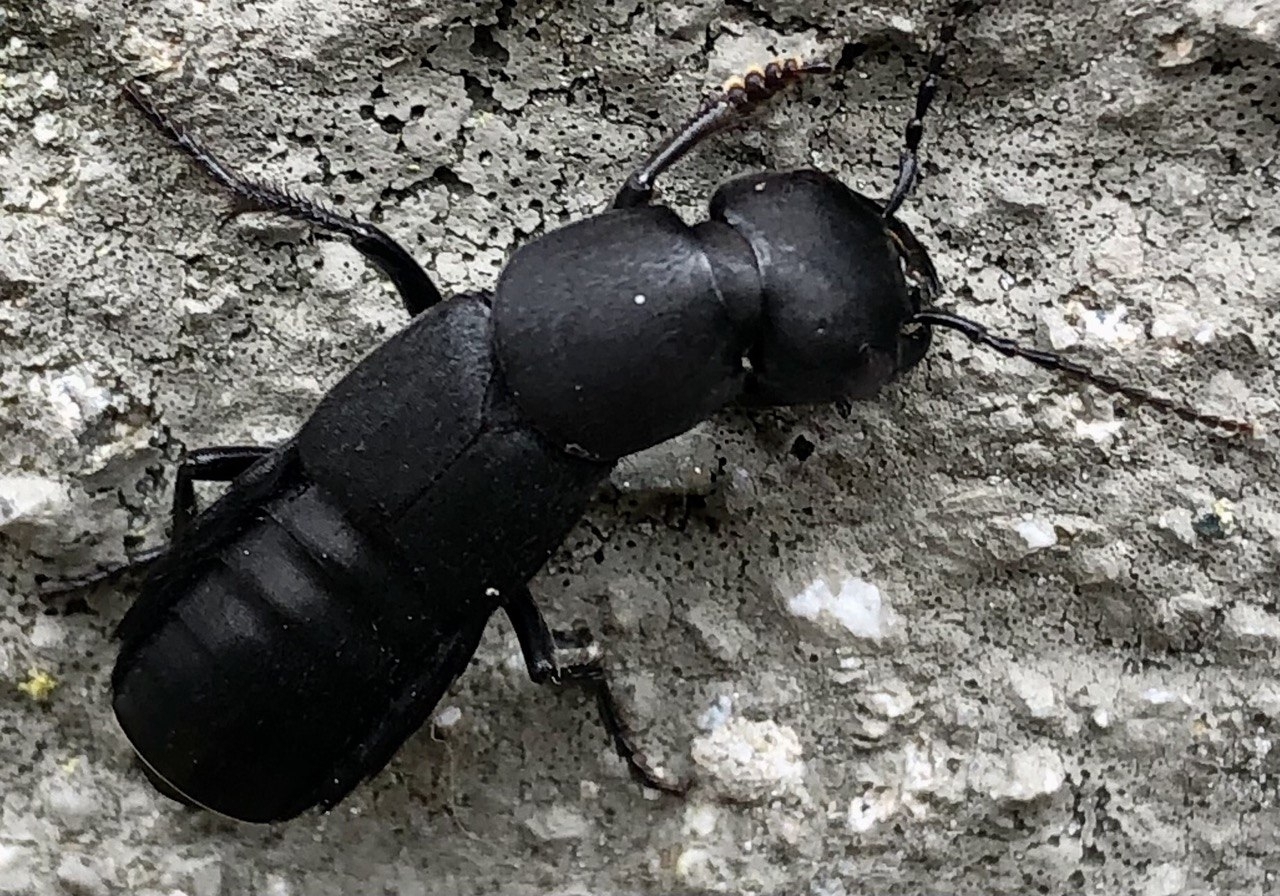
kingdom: Animalia
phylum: Arthropoda
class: Insecta
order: Coleoptera
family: Staphylinidae
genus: Ocypus
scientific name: Ocypus olens
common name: Devil's coach-horse
